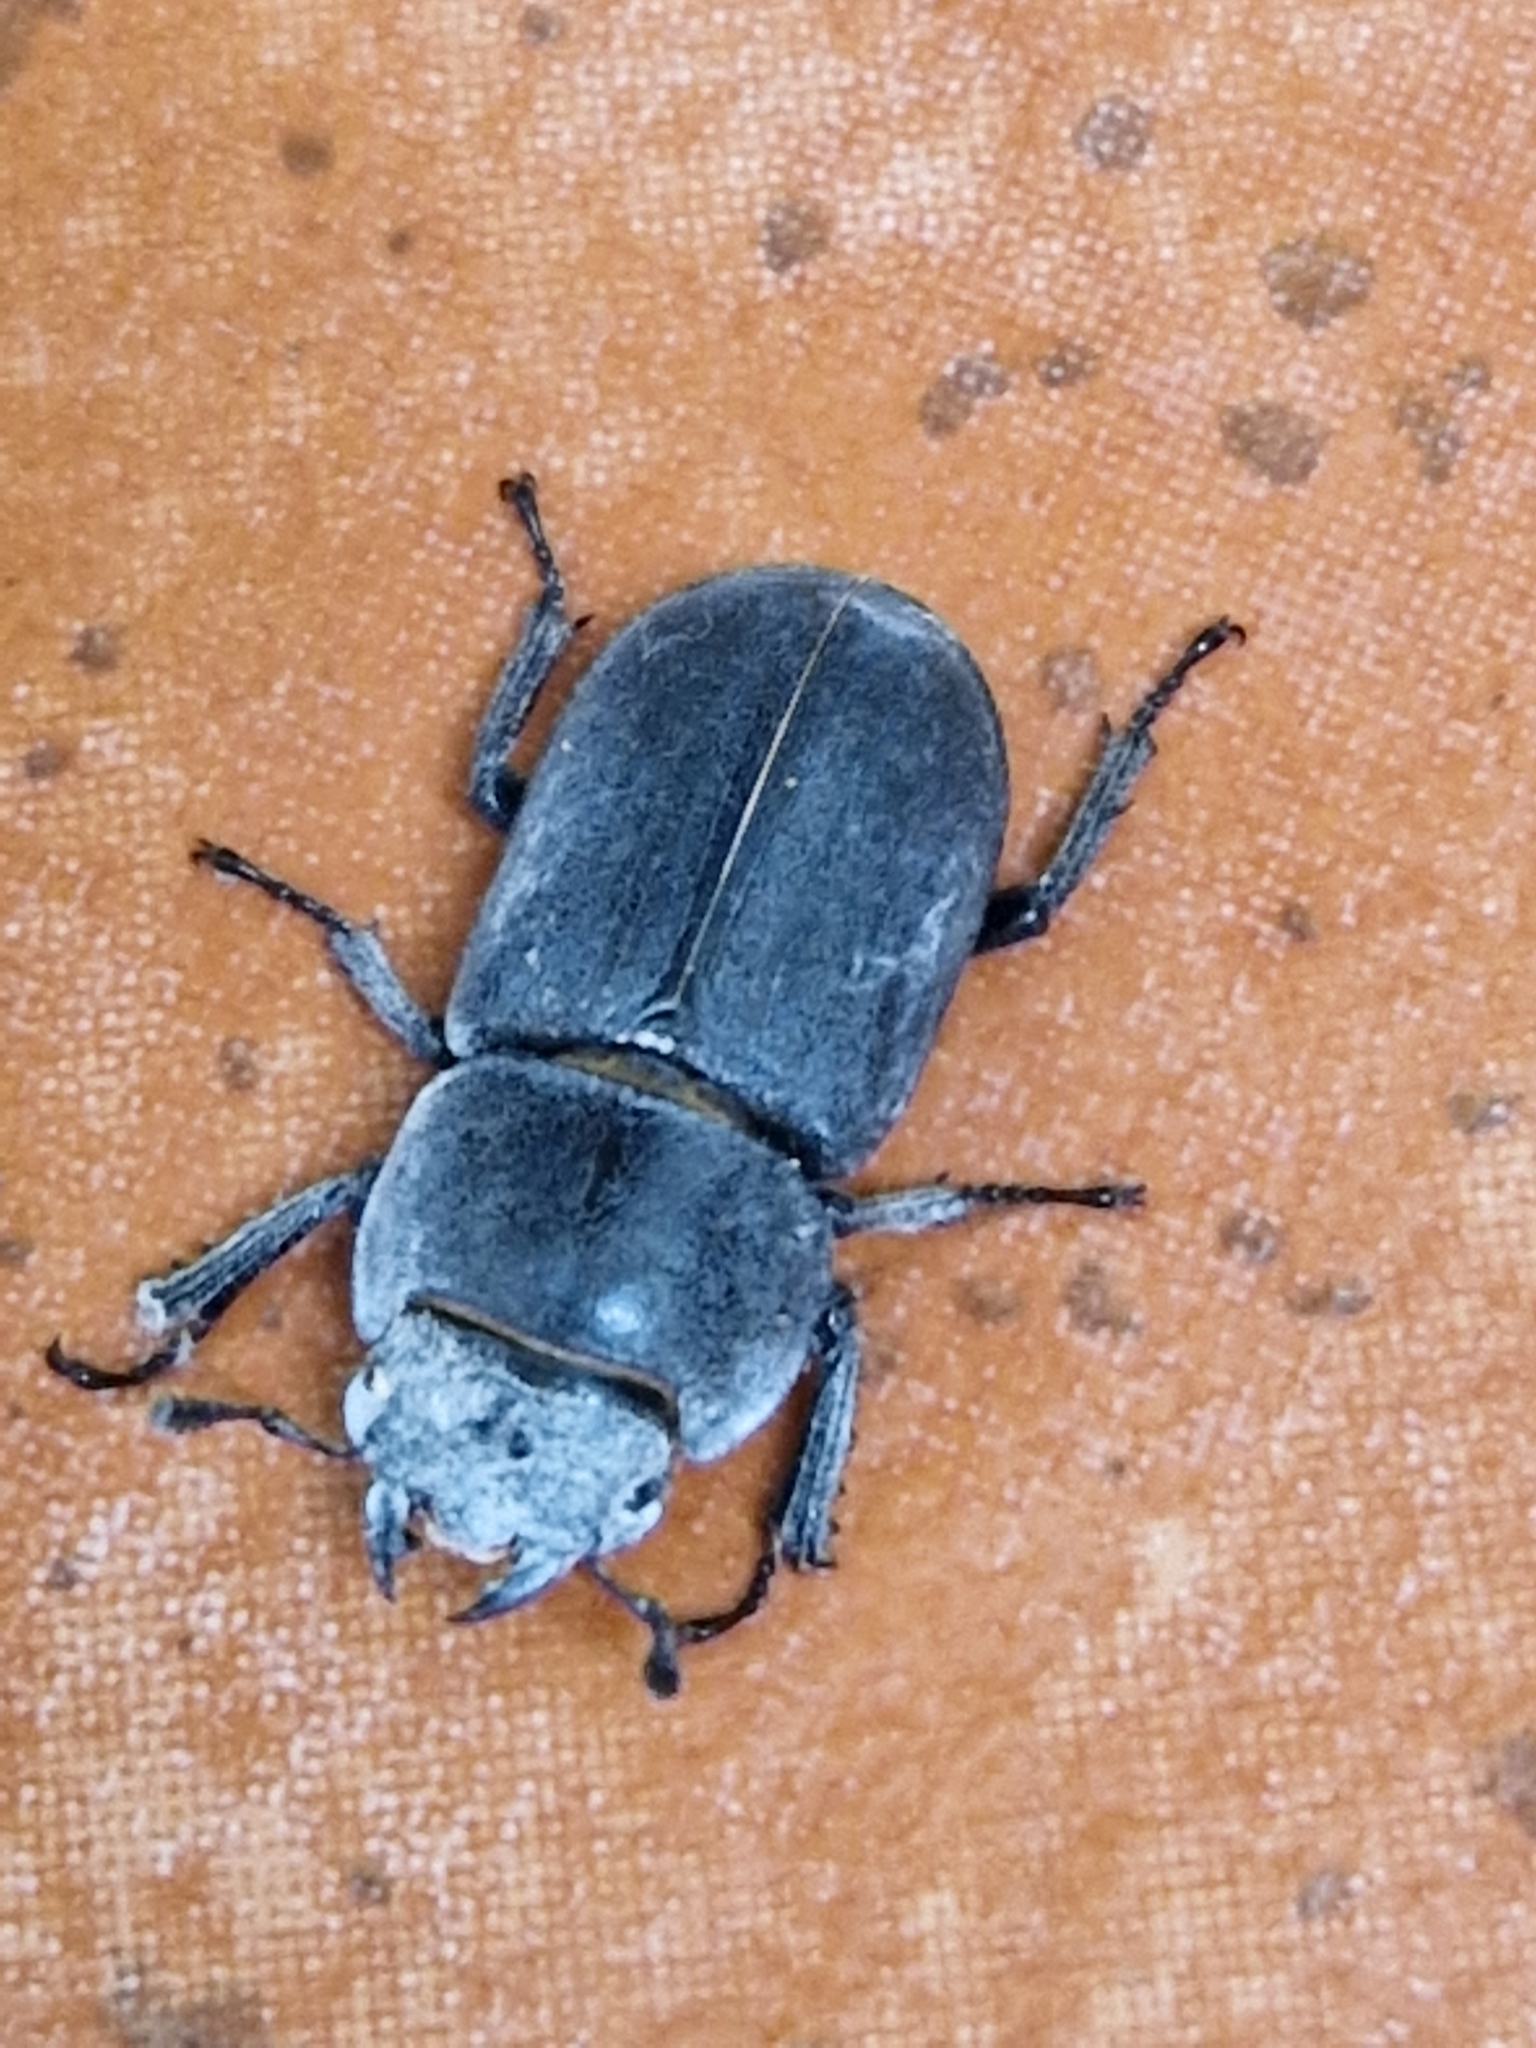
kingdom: Animalia
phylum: Arthropoda
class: Insecta
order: Coleoptera
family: Lucanidae
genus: Dorcus
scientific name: Dorcus parallelipipedus
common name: Lesser stag beetle
